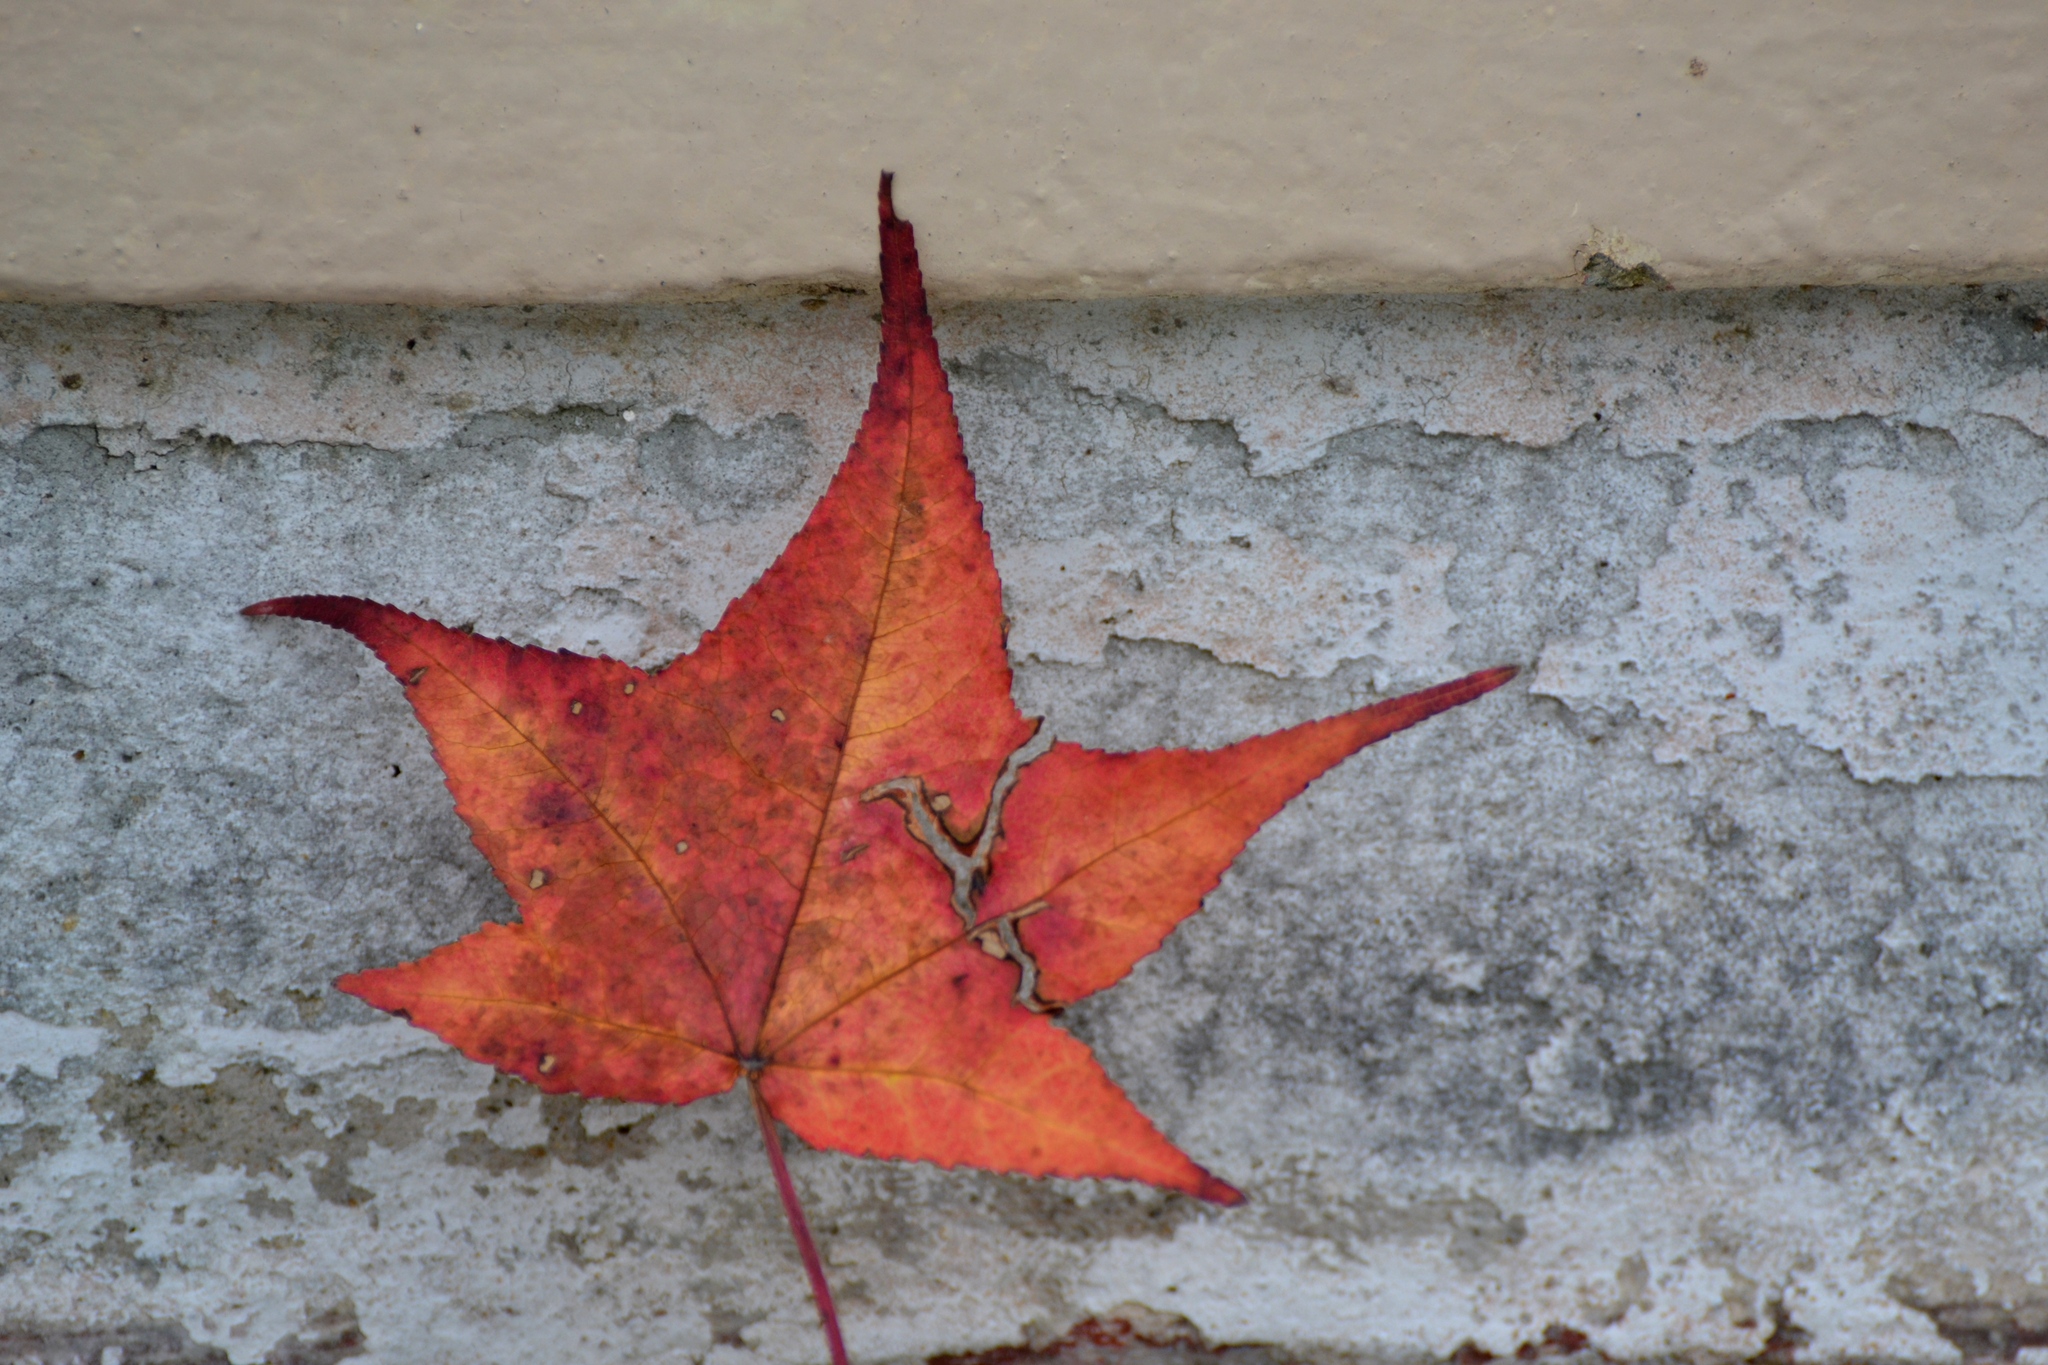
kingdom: Plantae
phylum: Tracheophyta
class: Magnoliopsida
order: Saxifragales
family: Altingiaceae
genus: Liquidambar
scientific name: Liquidambar styraciflua
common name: Sweet gum
